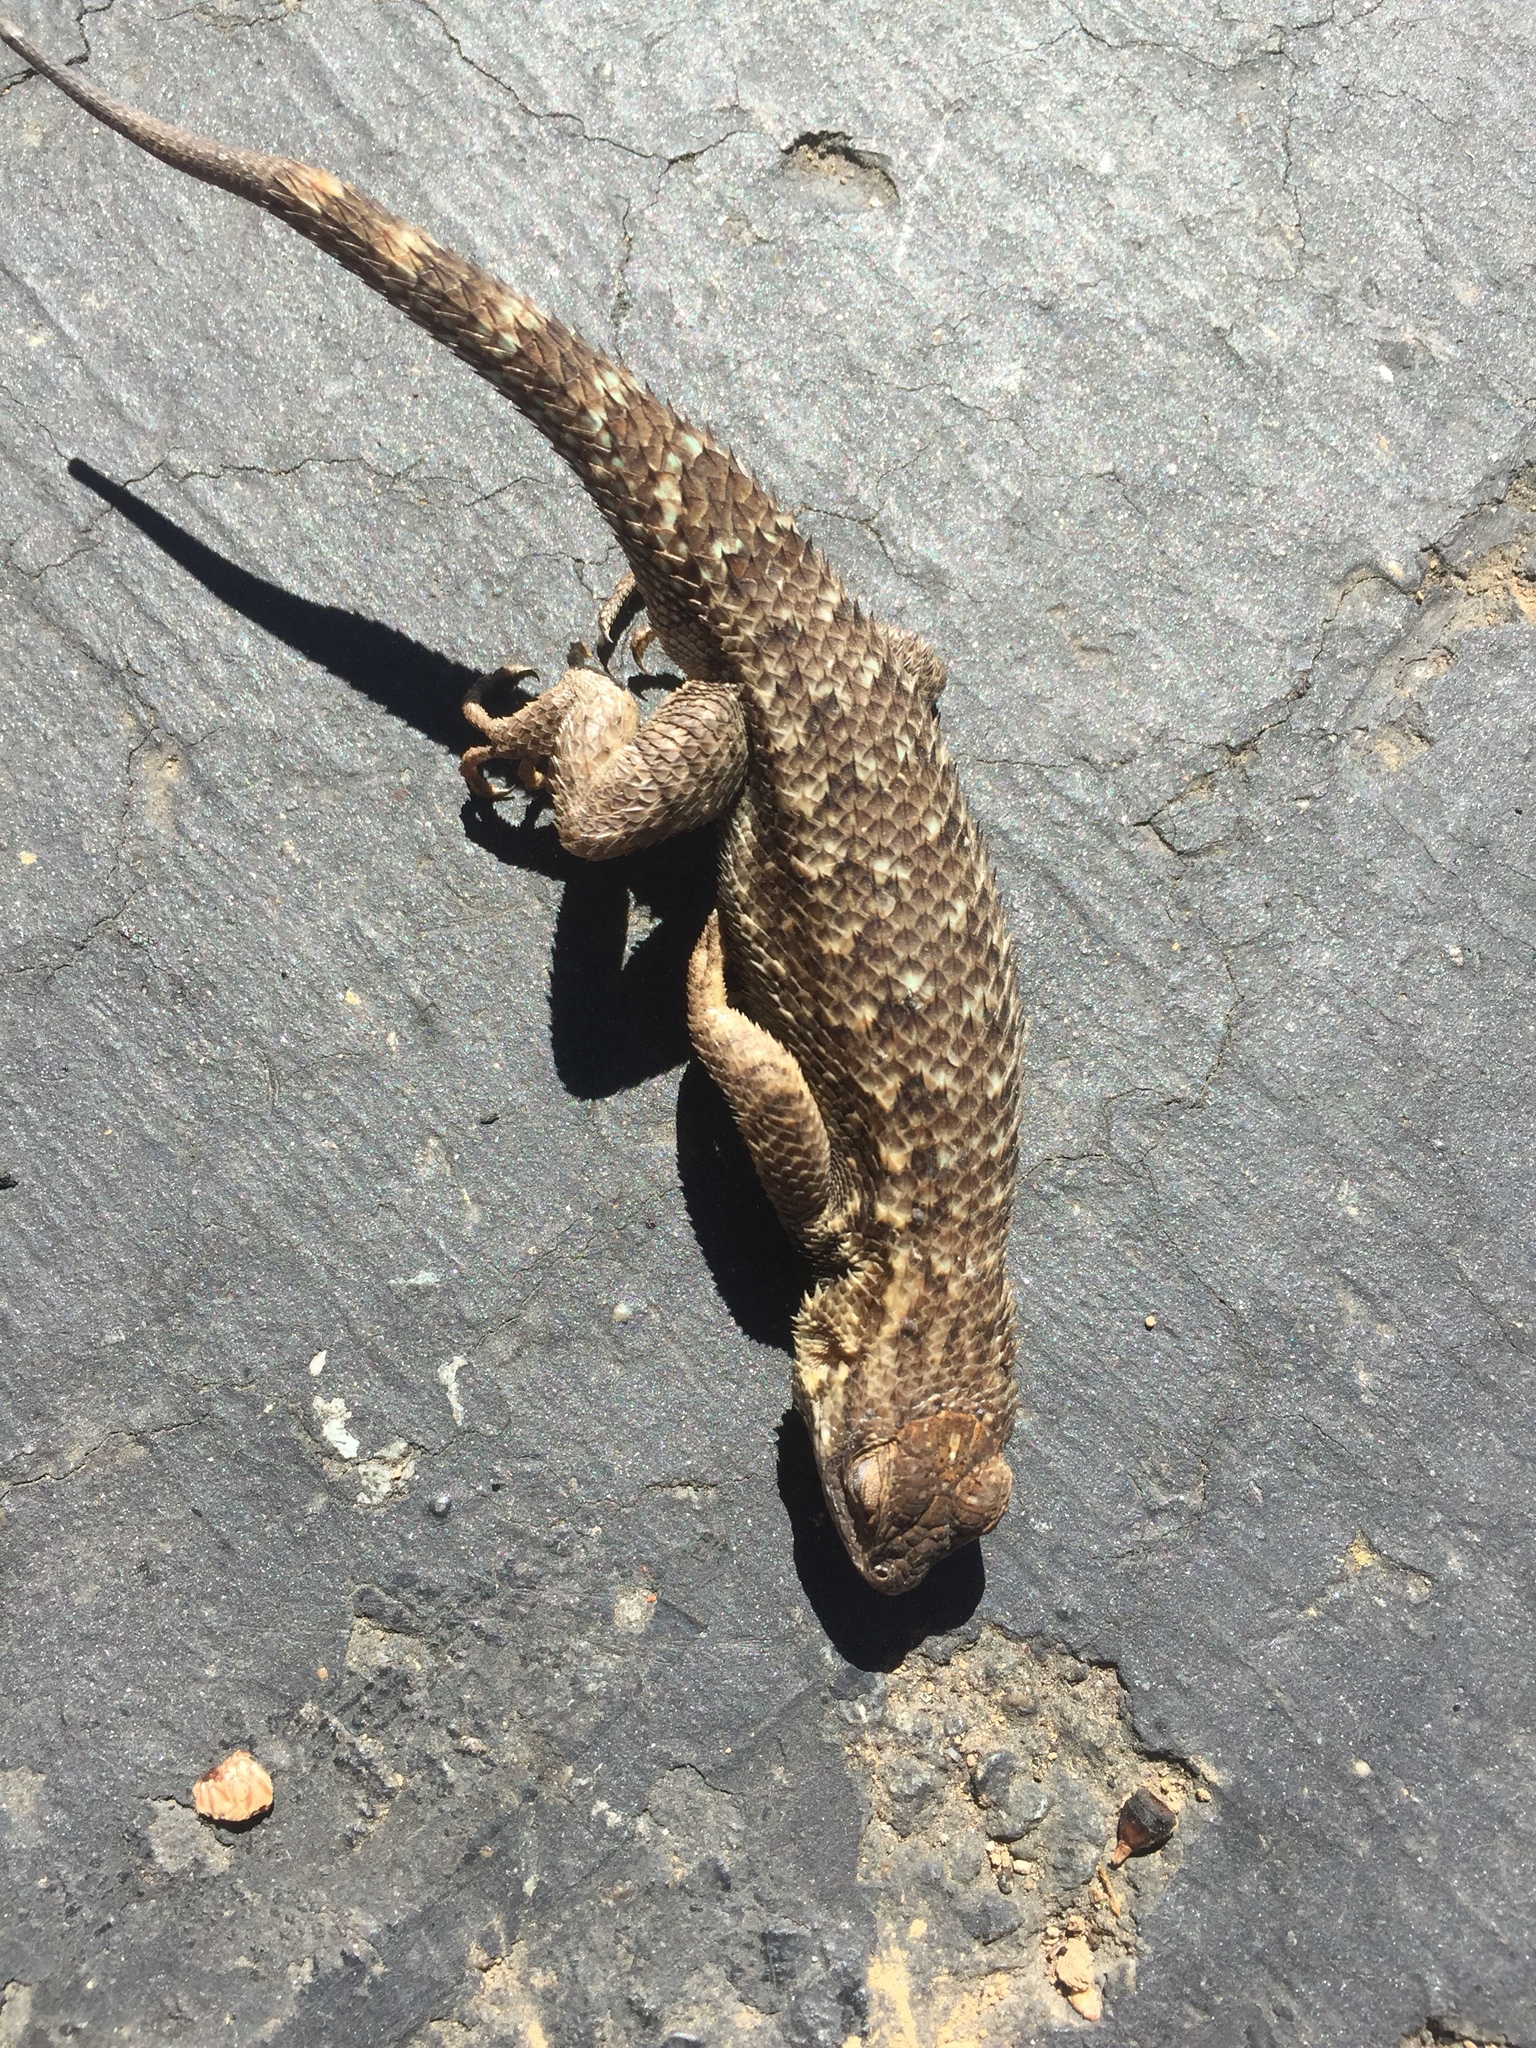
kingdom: Animalia
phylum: Chordata
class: Squamata
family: Phrynosomatidae
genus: Sceloporus
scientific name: Sceloporus occidentalis
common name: Western fence lizard
